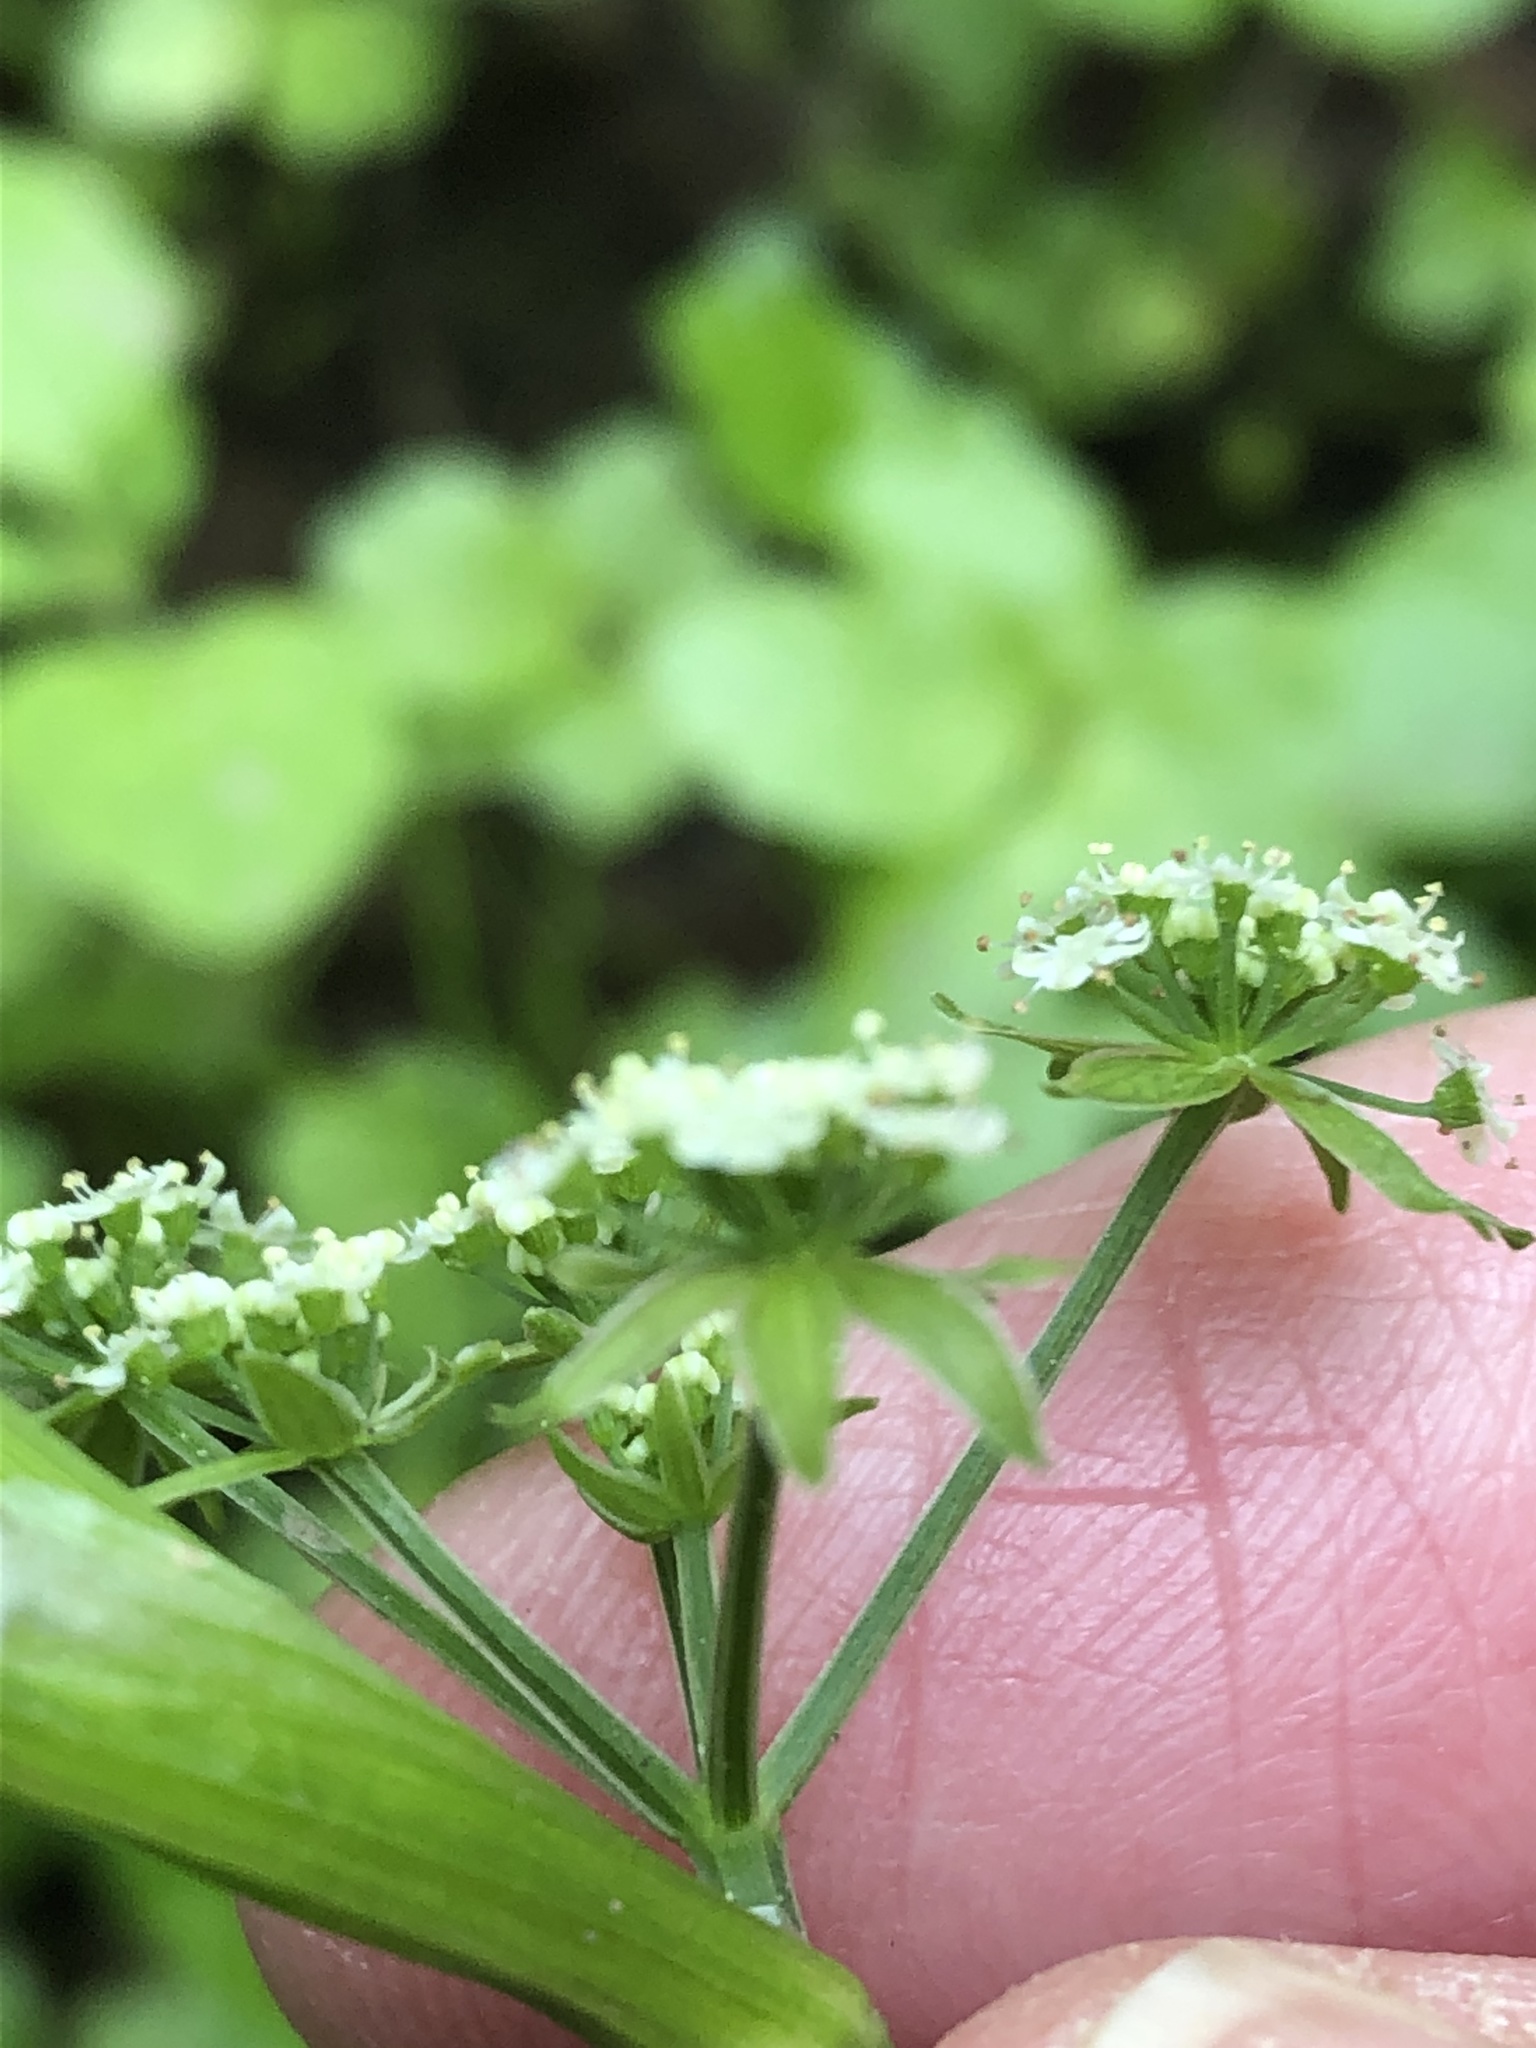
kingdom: Plantae
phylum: Tracheophyta
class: Magnoliopsida
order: Apiales
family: Apiaceae
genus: Helosciadium
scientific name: Helosciadium nodiflorum
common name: Fool's-watercress
